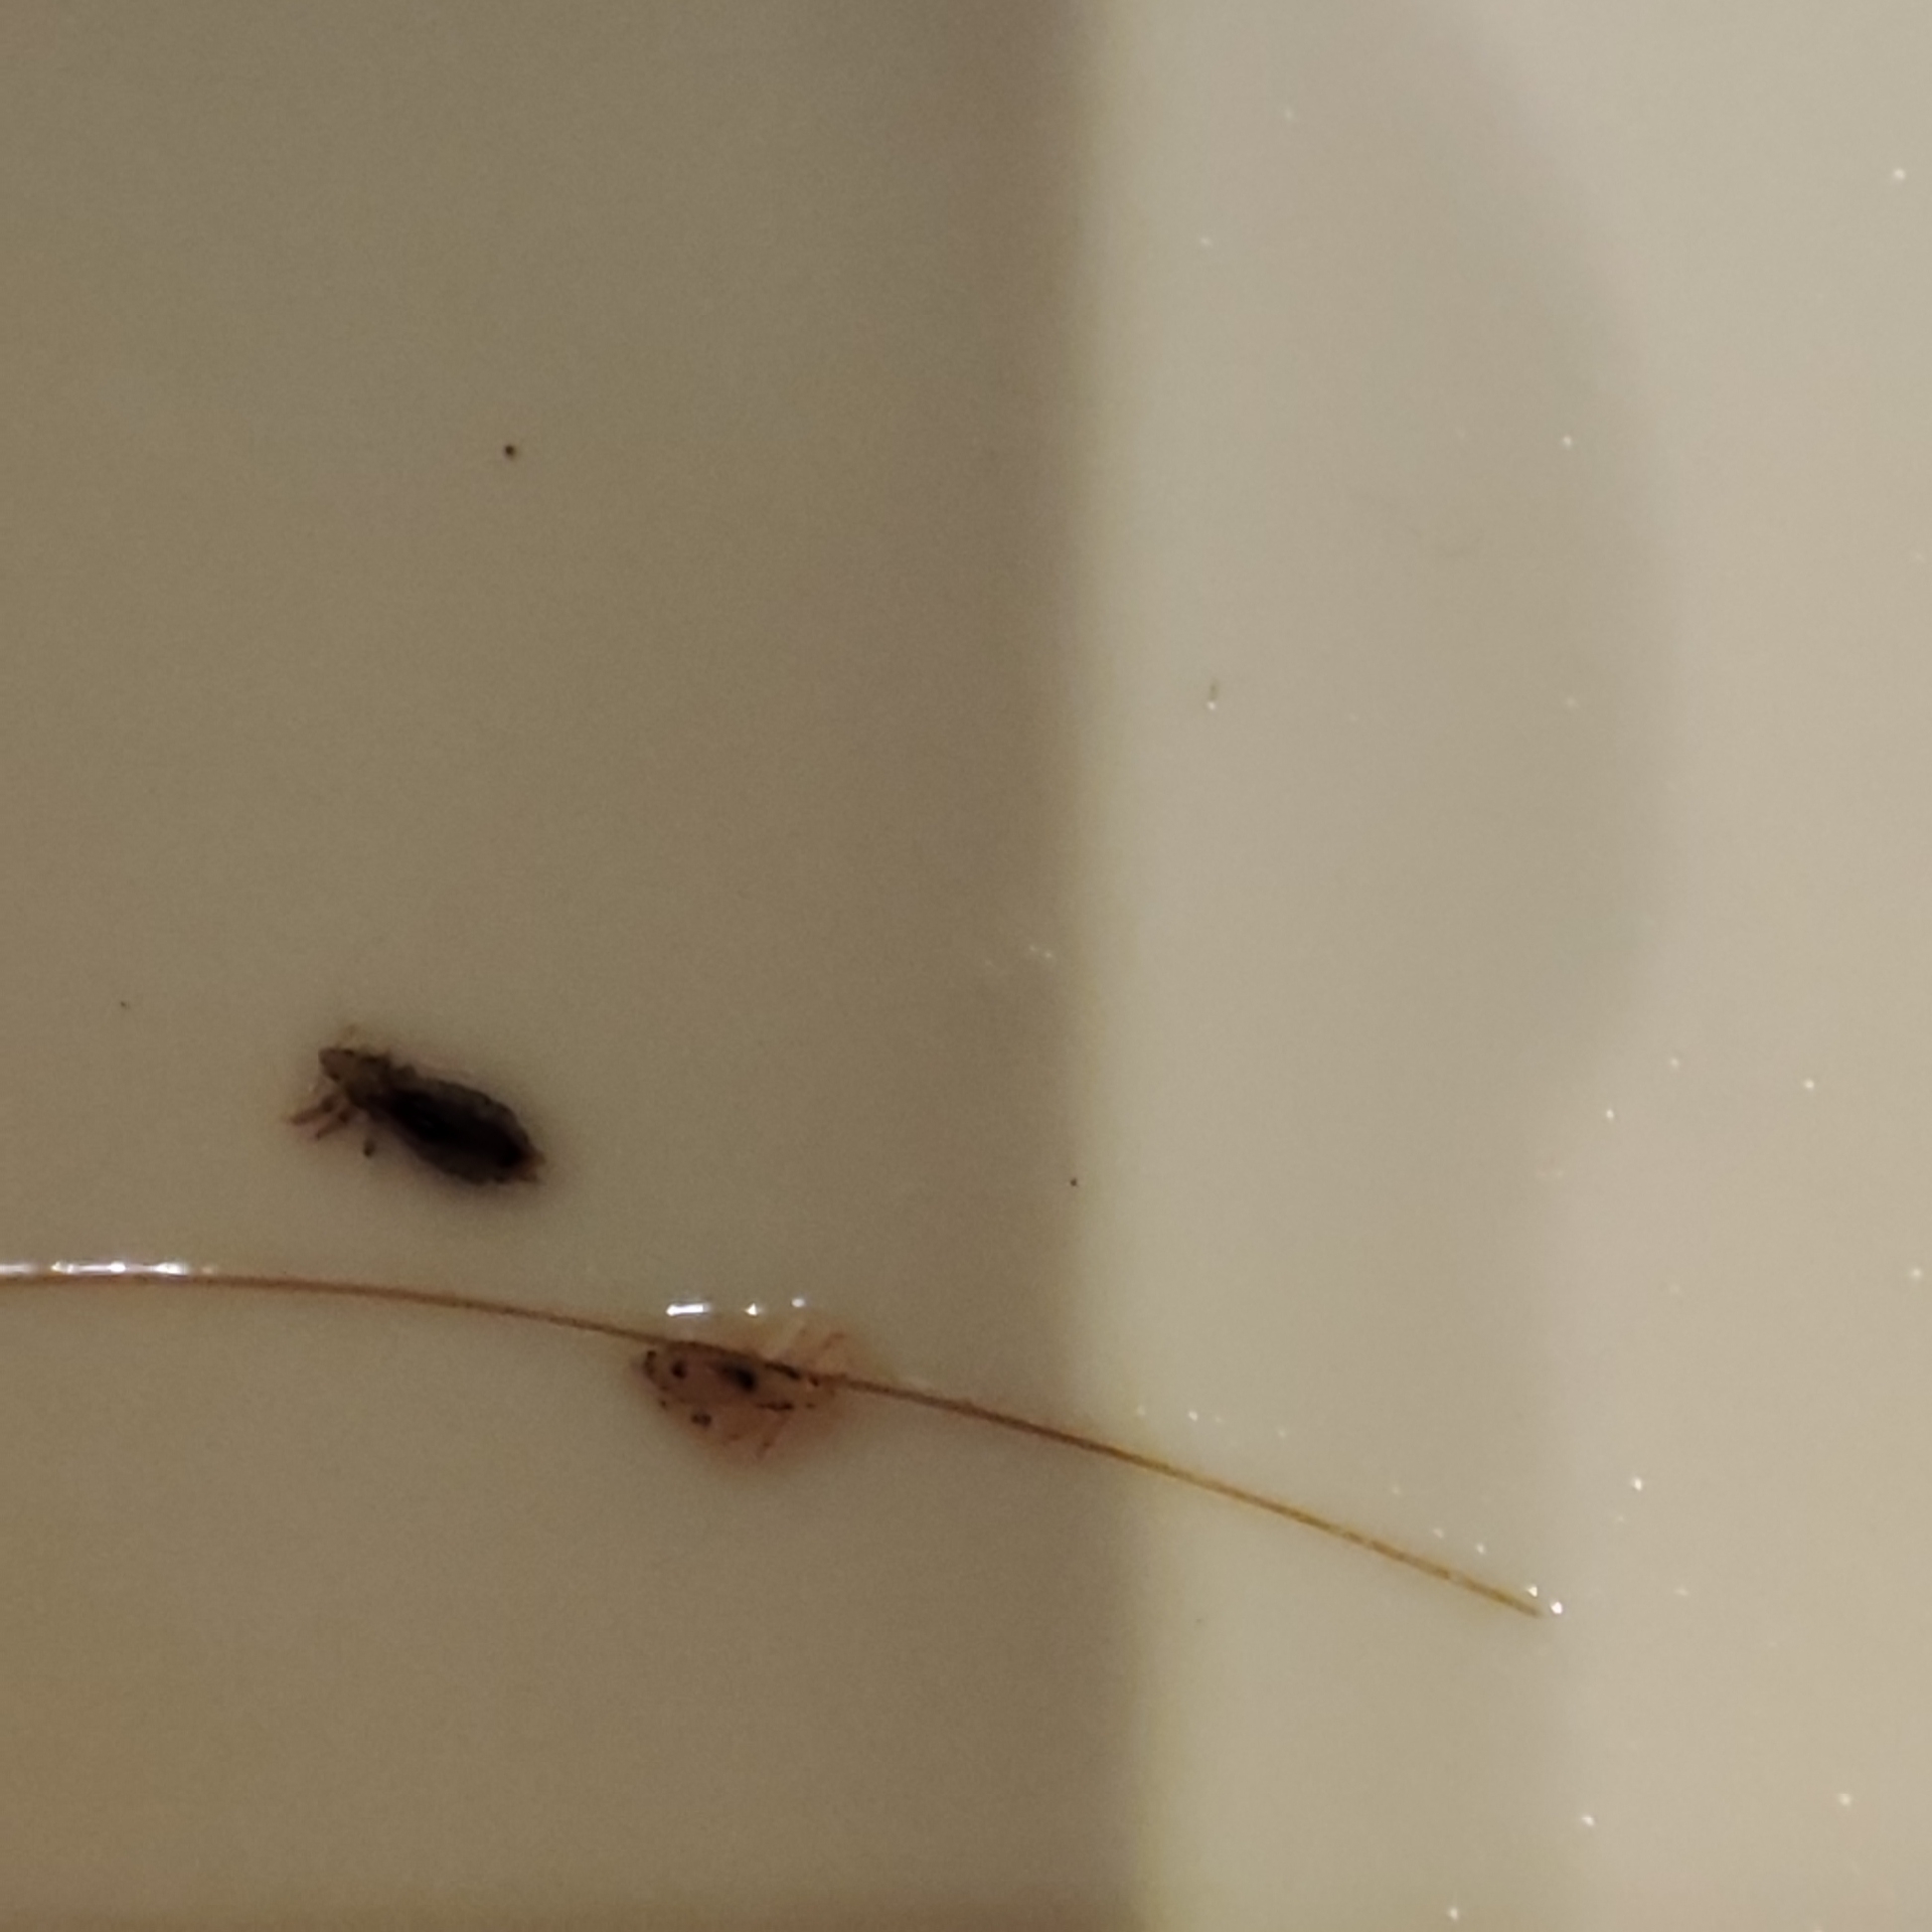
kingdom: Animalia
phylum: Arthropoda
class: Insecta
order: Psocodea
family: Pediculidae
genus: Pediculus
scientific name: Pediculus humanus
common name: Body louse
